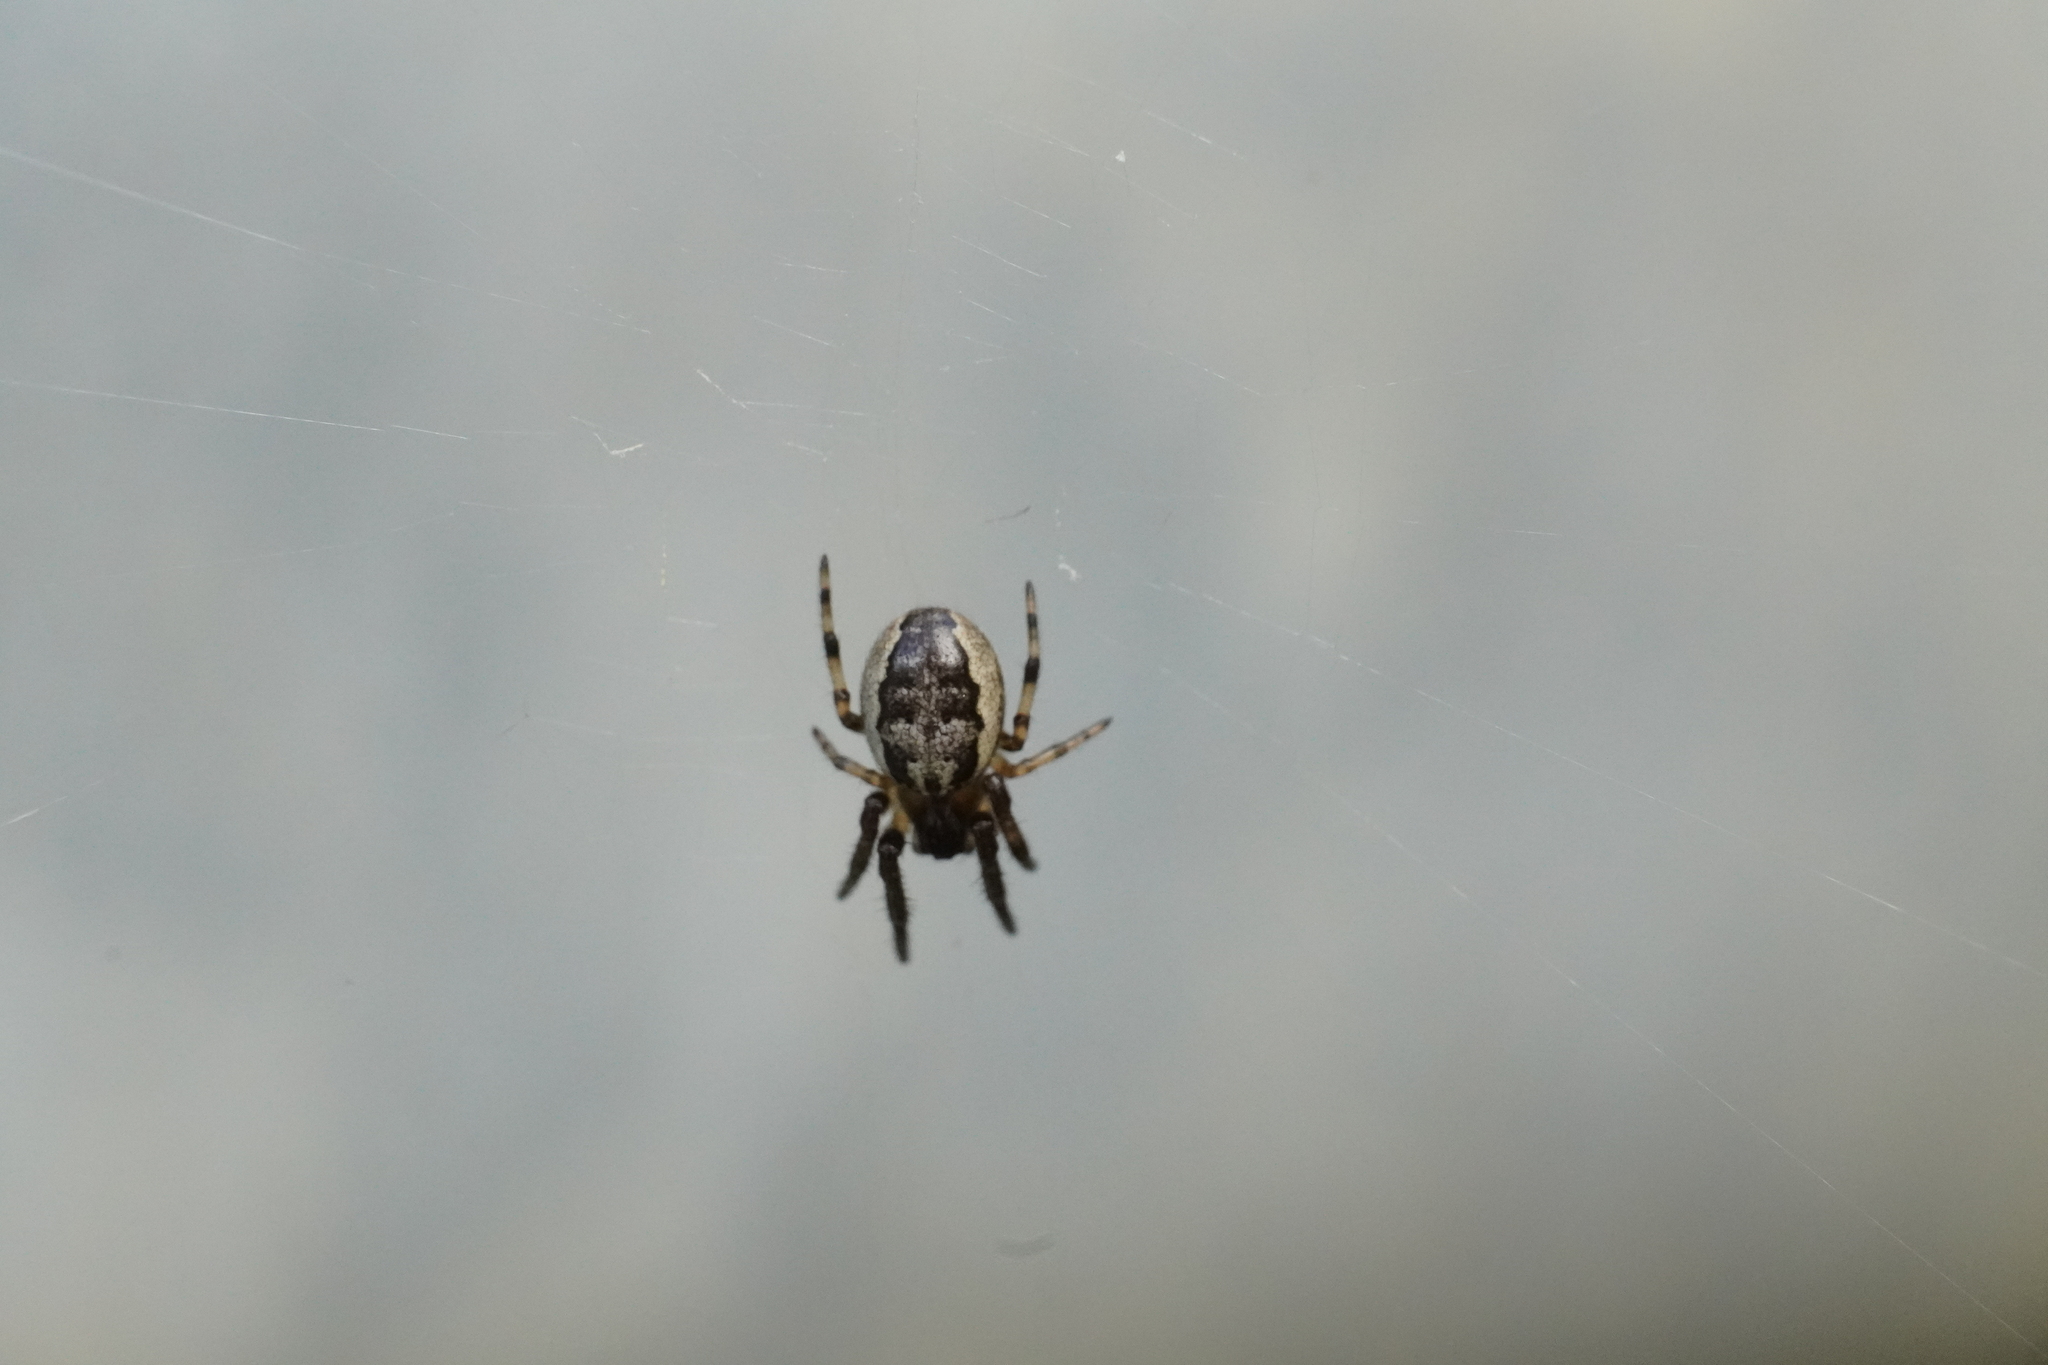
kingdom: Animalia
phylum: Arthropoda
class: Arachnida
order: Araneae
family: Araneidae
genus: Larinioides
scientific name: Larinioides cornutus
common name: Furrow orbweaver
